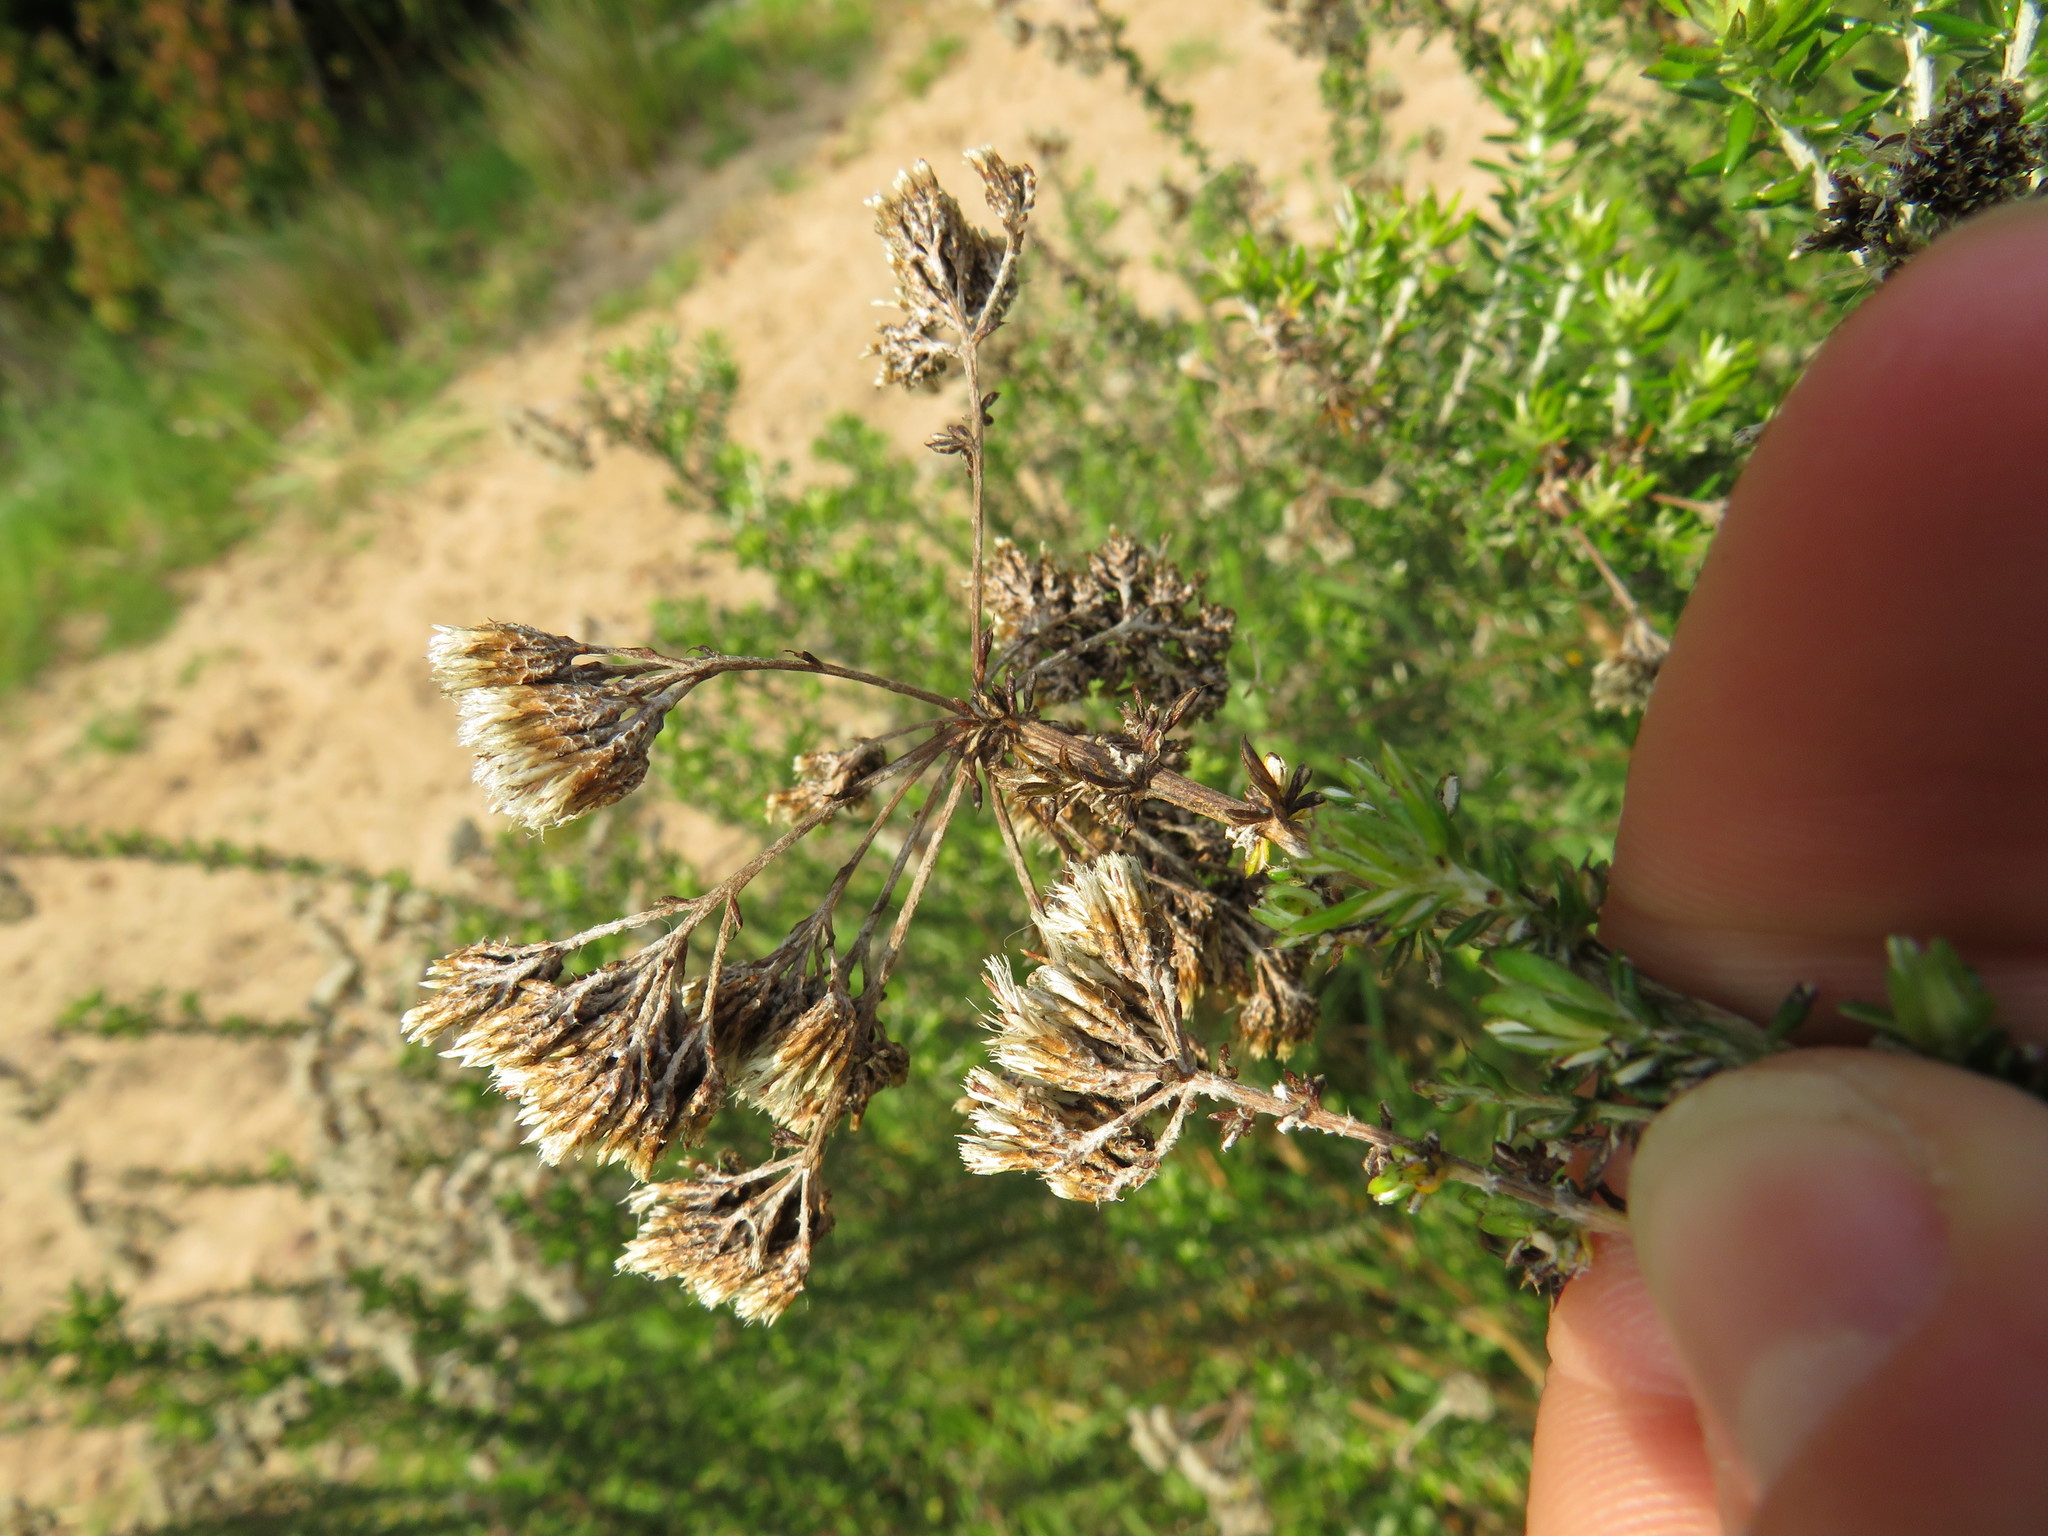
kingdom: Plantae
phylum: Tracheophyta
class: Magnoliopsida
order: Asterales
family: Asteraceae
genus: Metalasia
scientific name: Metalasia densa
